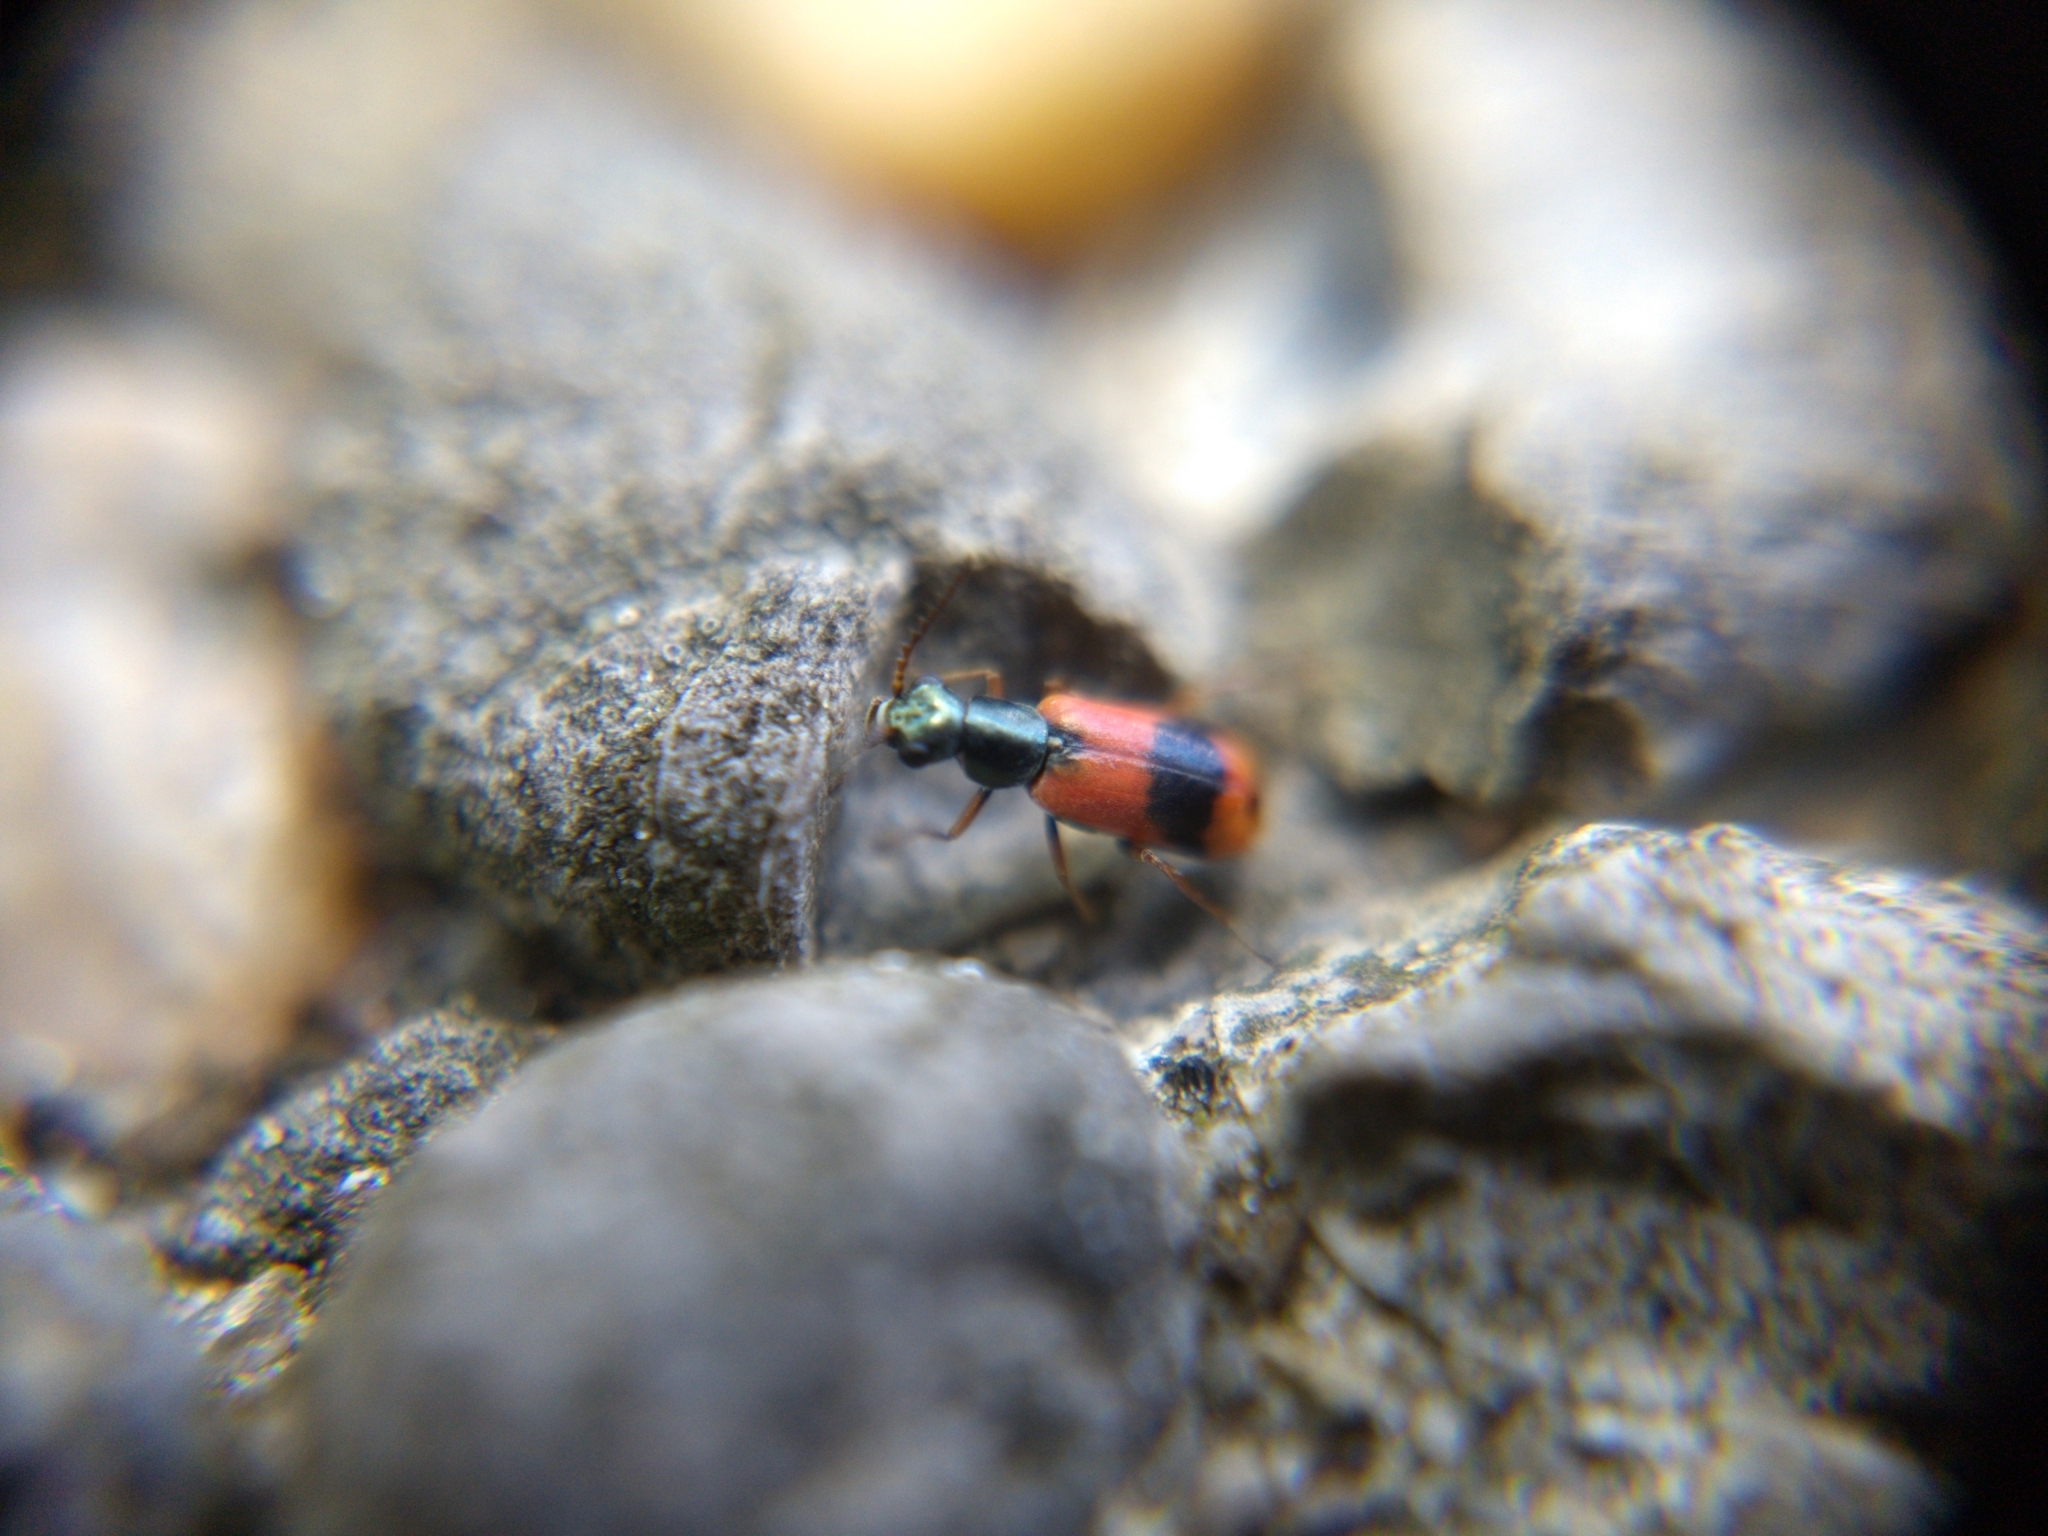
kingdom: Animalia
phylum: Arthropoda
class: Insecta
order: Coleoptera
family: Melyridae
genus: Anthocomus
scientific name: Anthocomus equestris
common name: Black-banded soft-winged flower beetle
